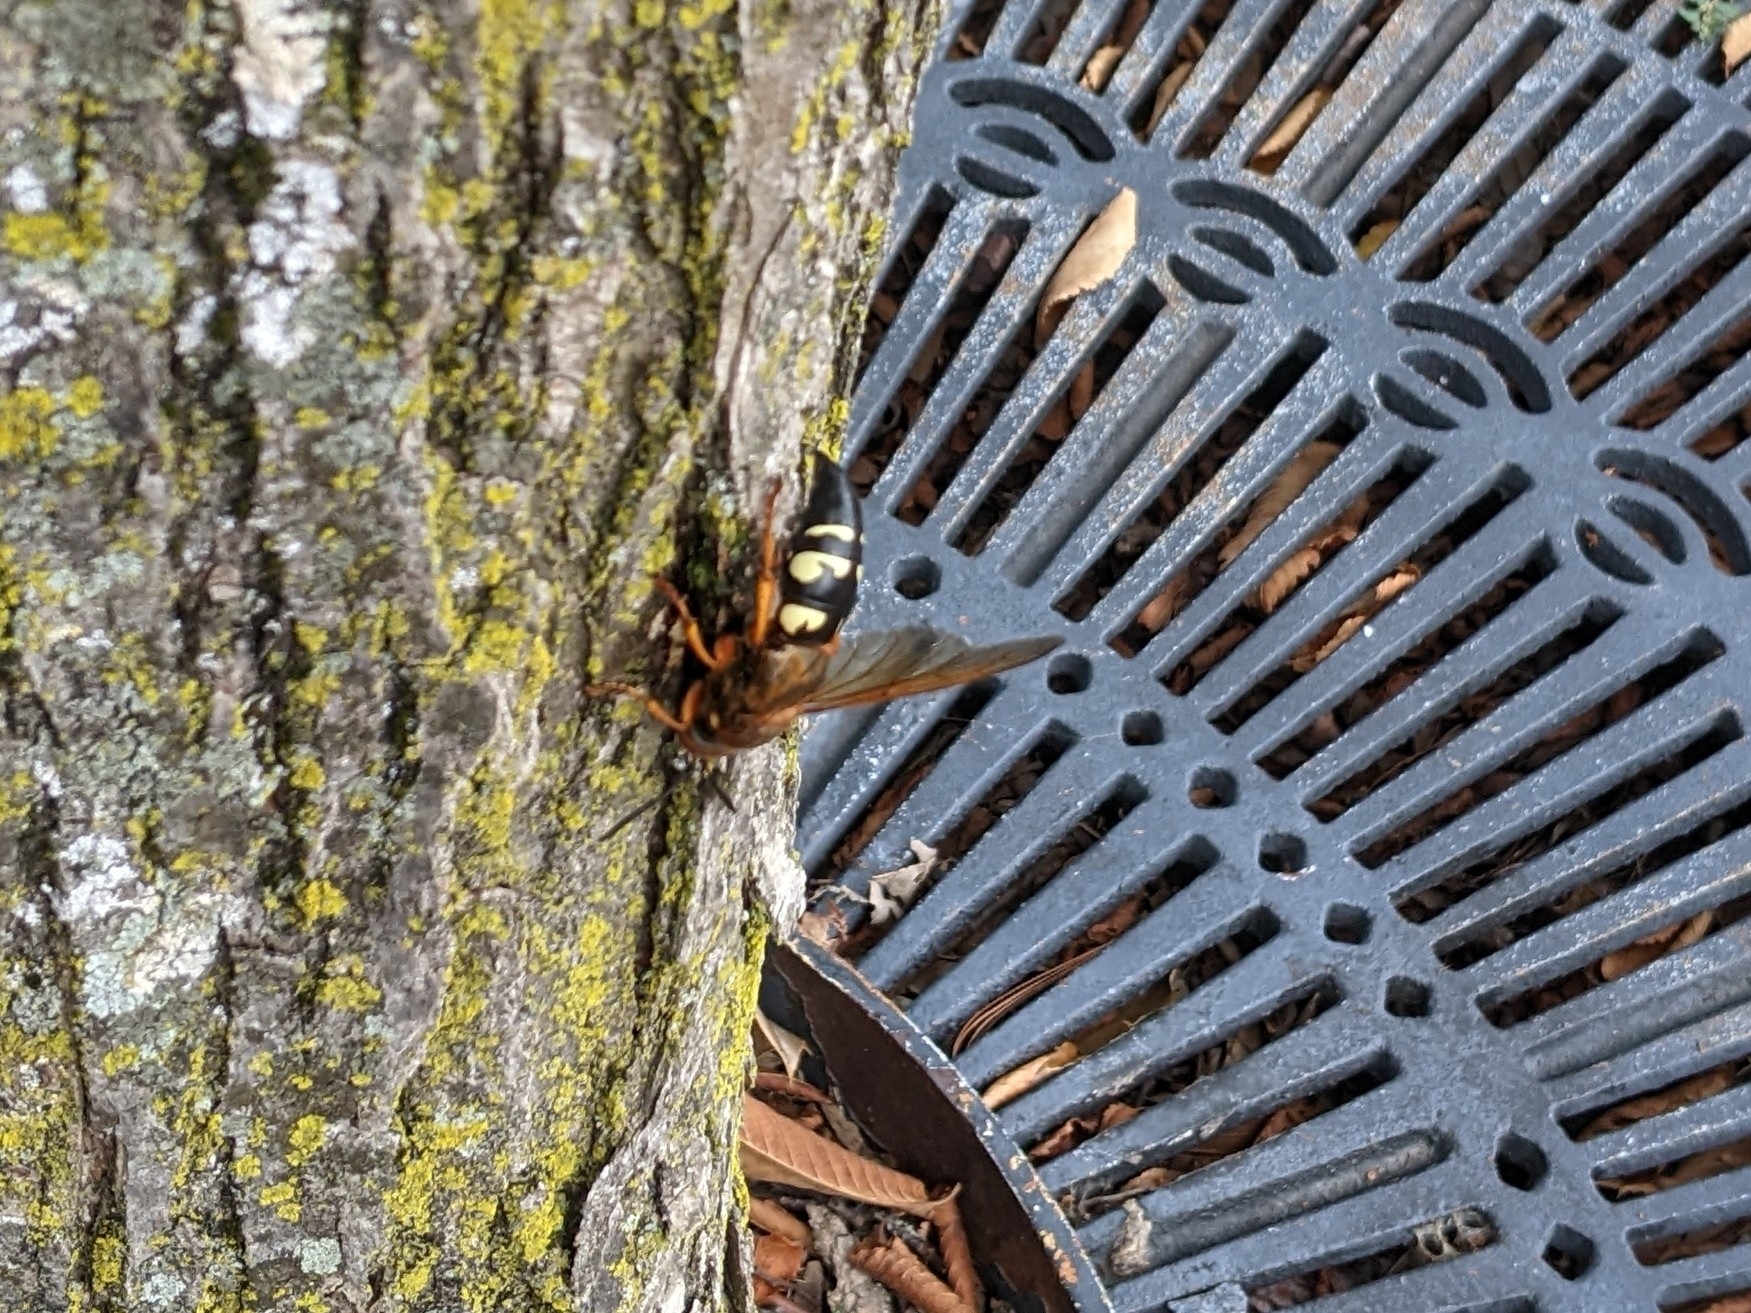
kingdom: Animalia
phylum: Arthropoda
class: Insecta
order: Hymenoptera
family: Crabronidae
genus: Sphecius
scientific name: Sphecius speciosus
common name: Cicada killer
